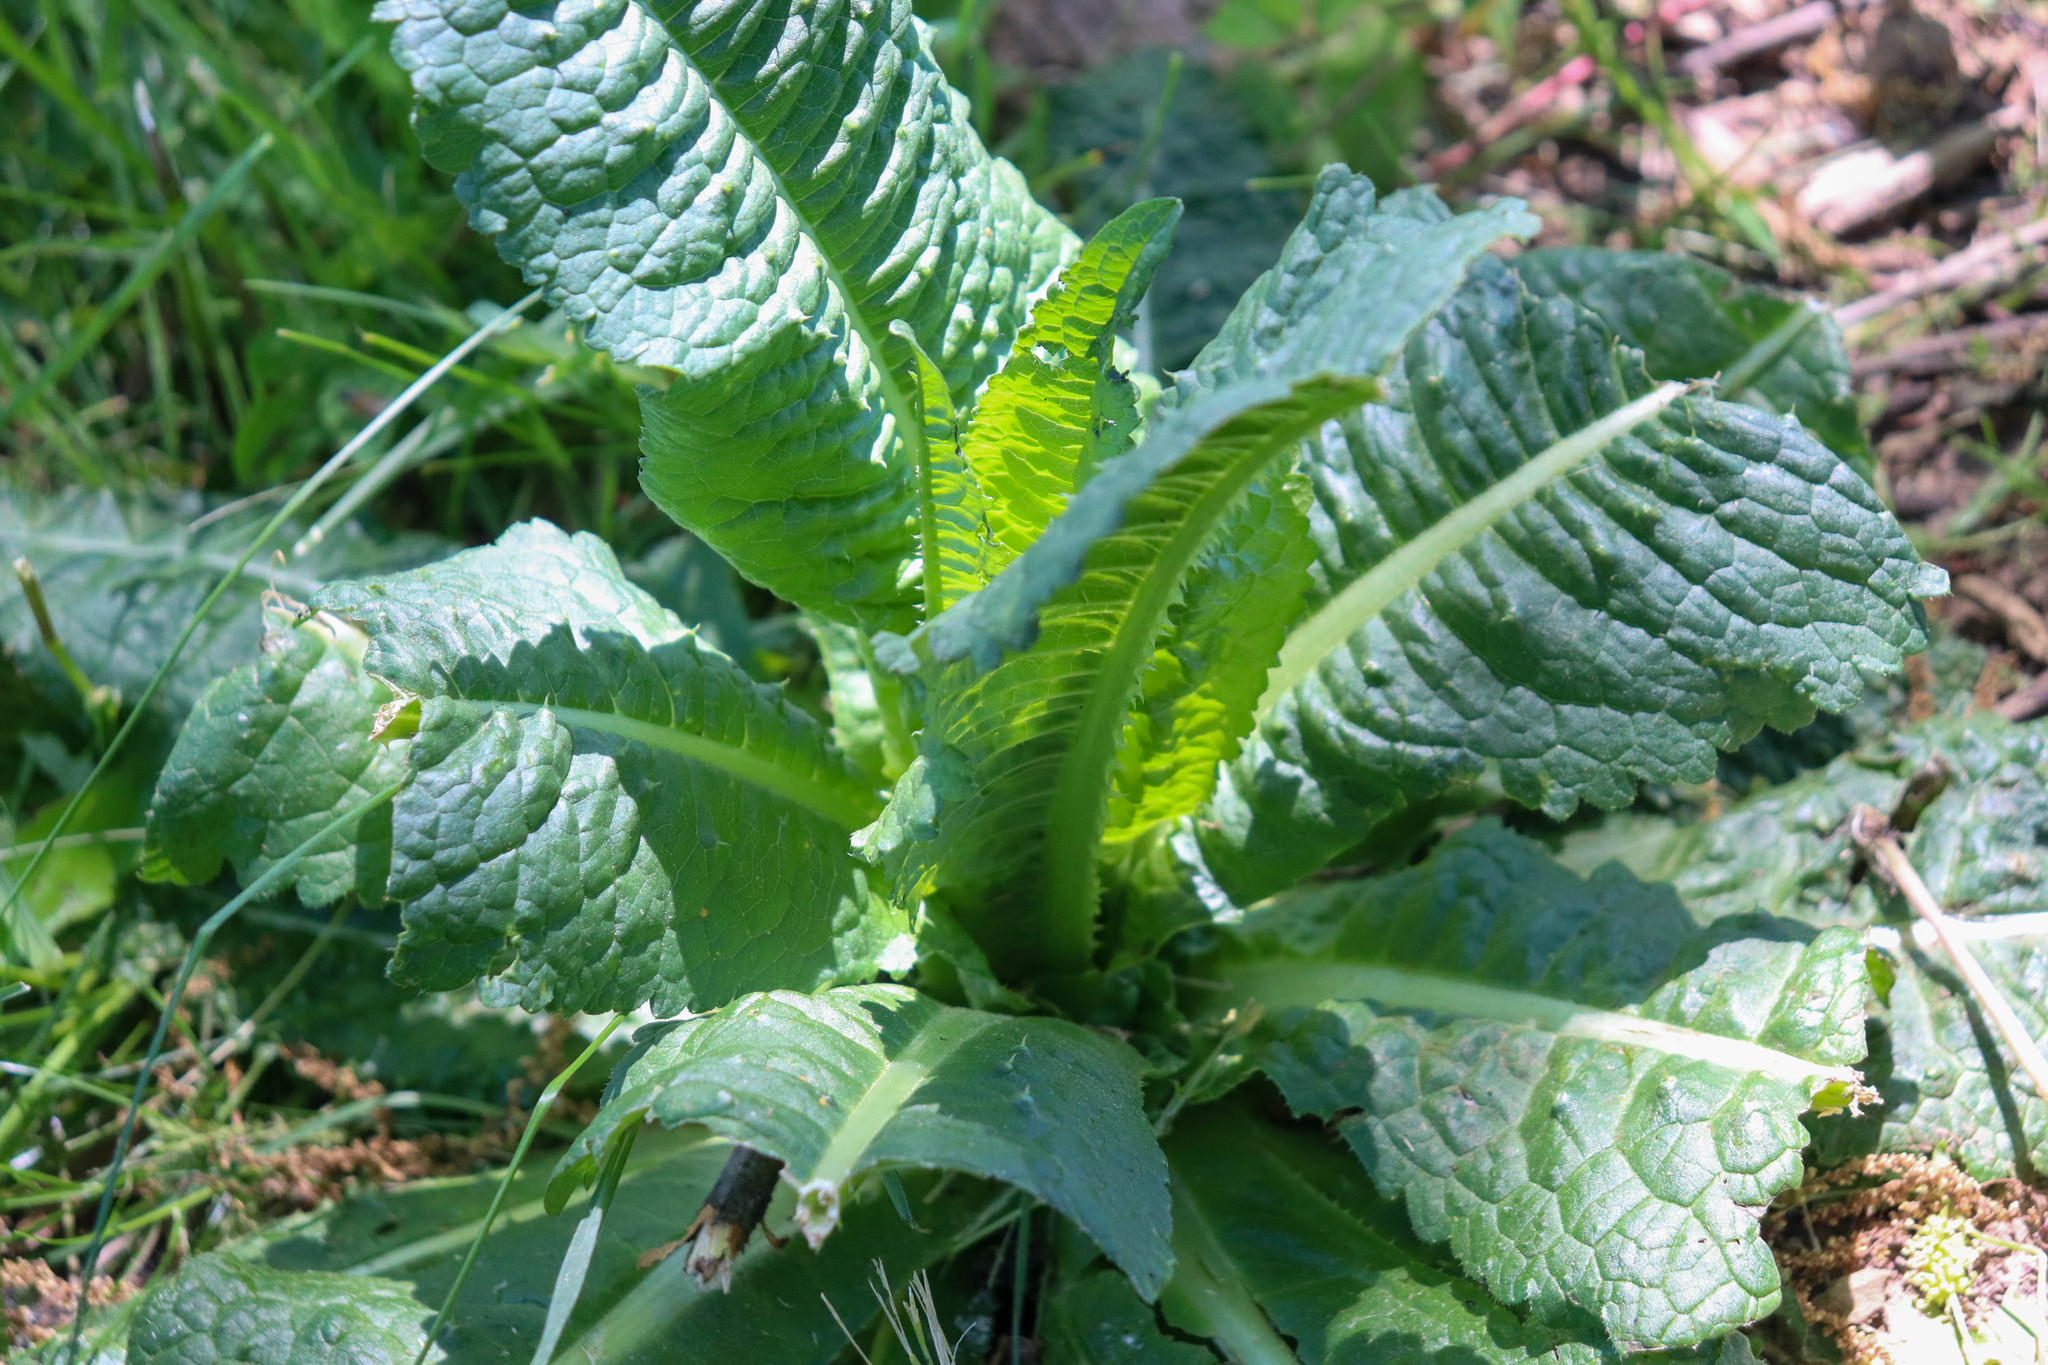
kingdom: Plantae
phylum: Tracheophyta
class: Magnoliopsida
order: Dipsacales
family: Caprifoliaceae
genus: Dipsacus
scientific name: Dipsacus fullonum
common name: Teasel
